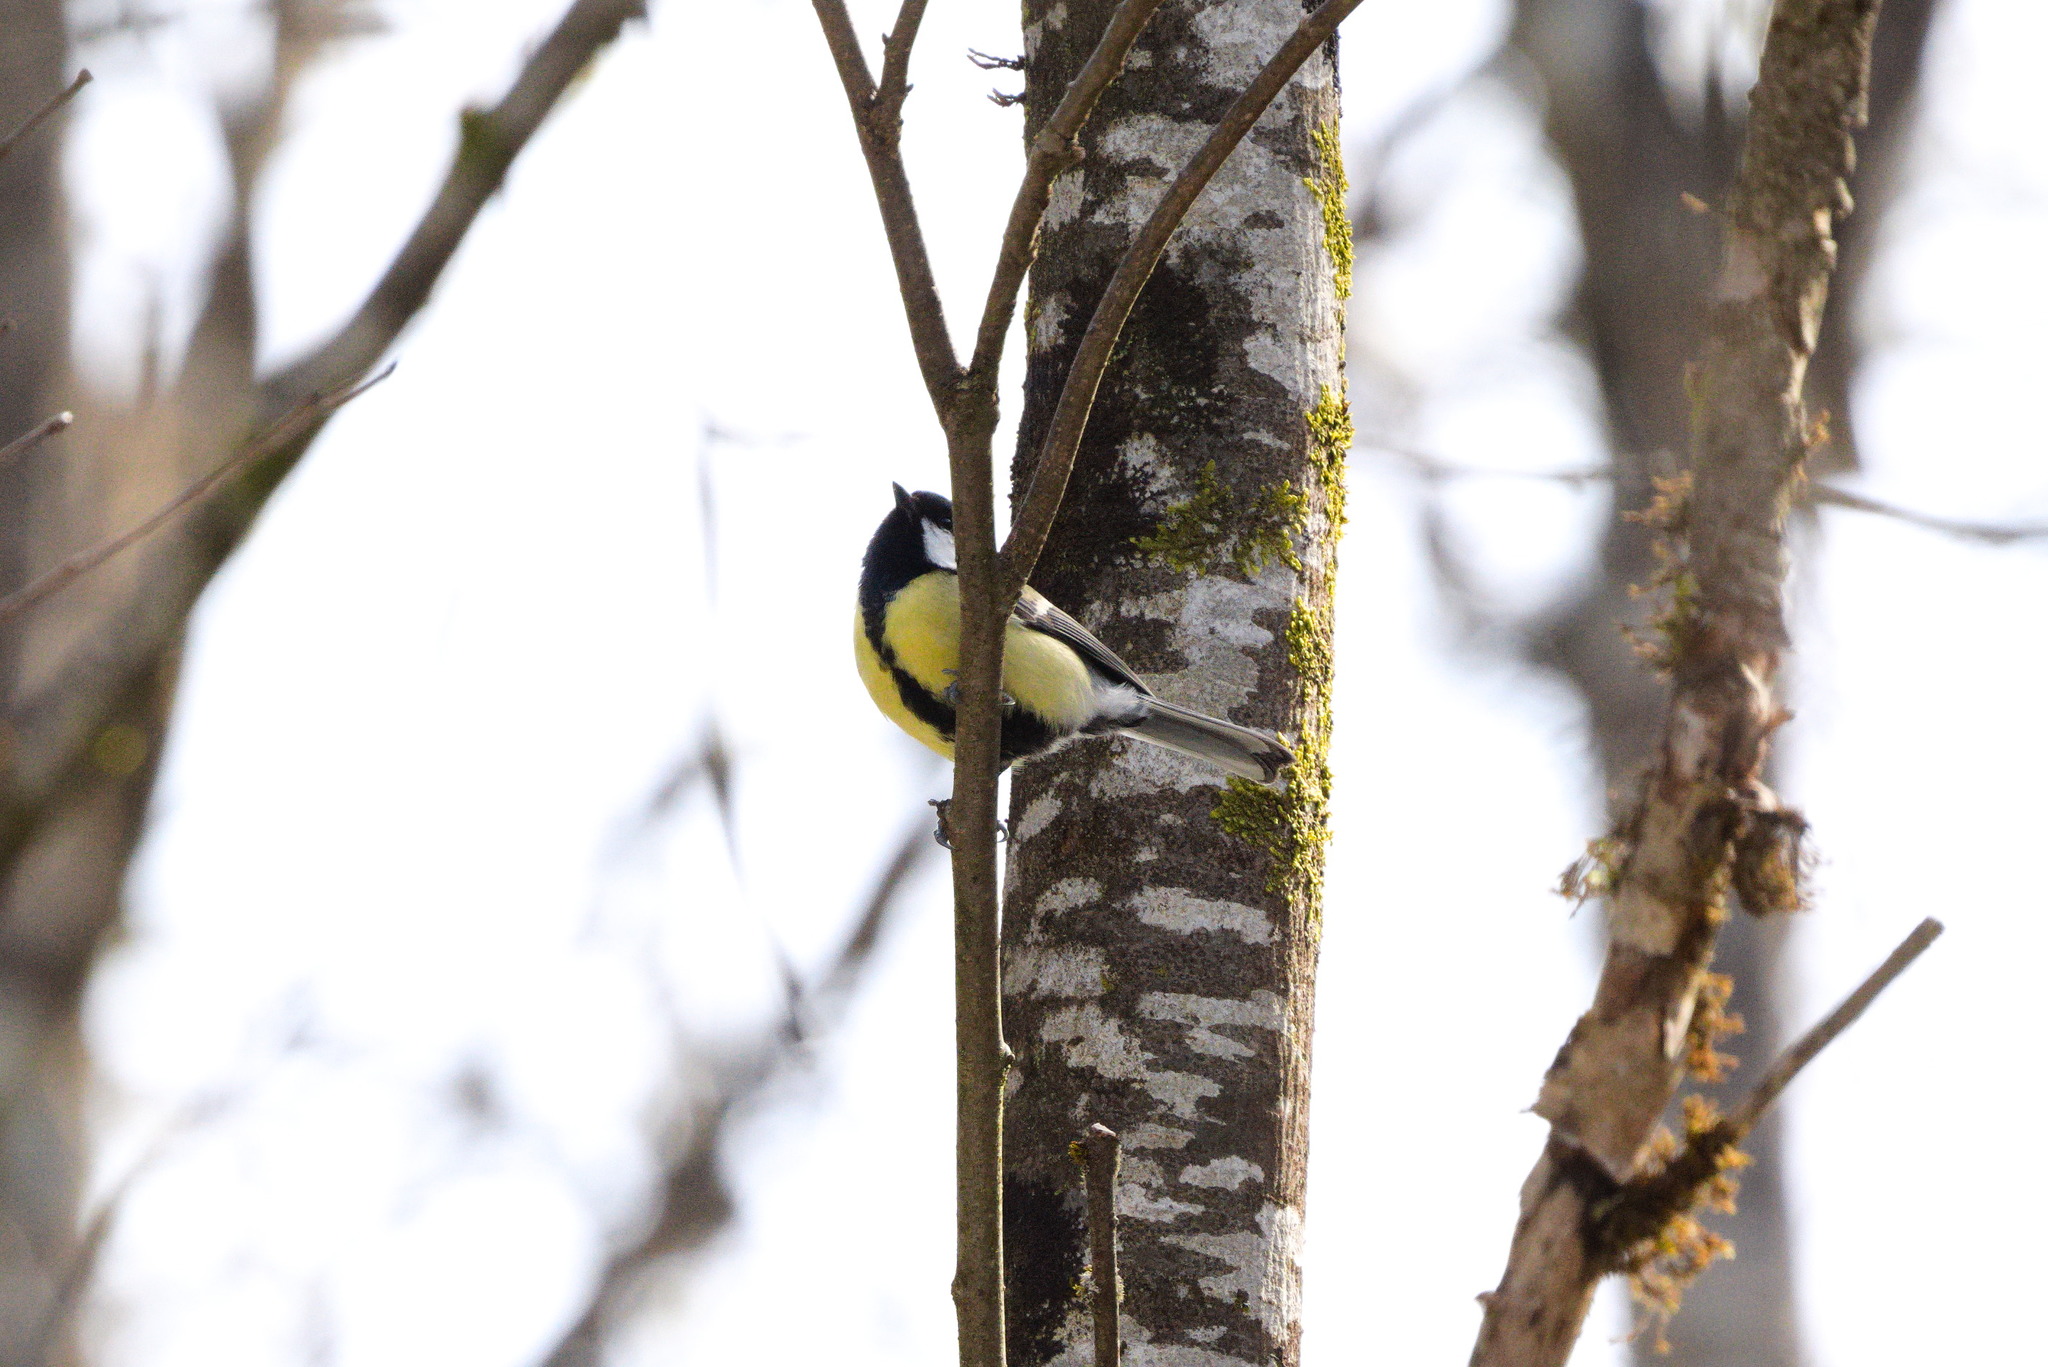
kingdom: Animalia
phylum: Chordata
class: Aves
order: Passeriformes
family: Paridae
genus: Parus
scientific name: Parus major
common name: Great tit
